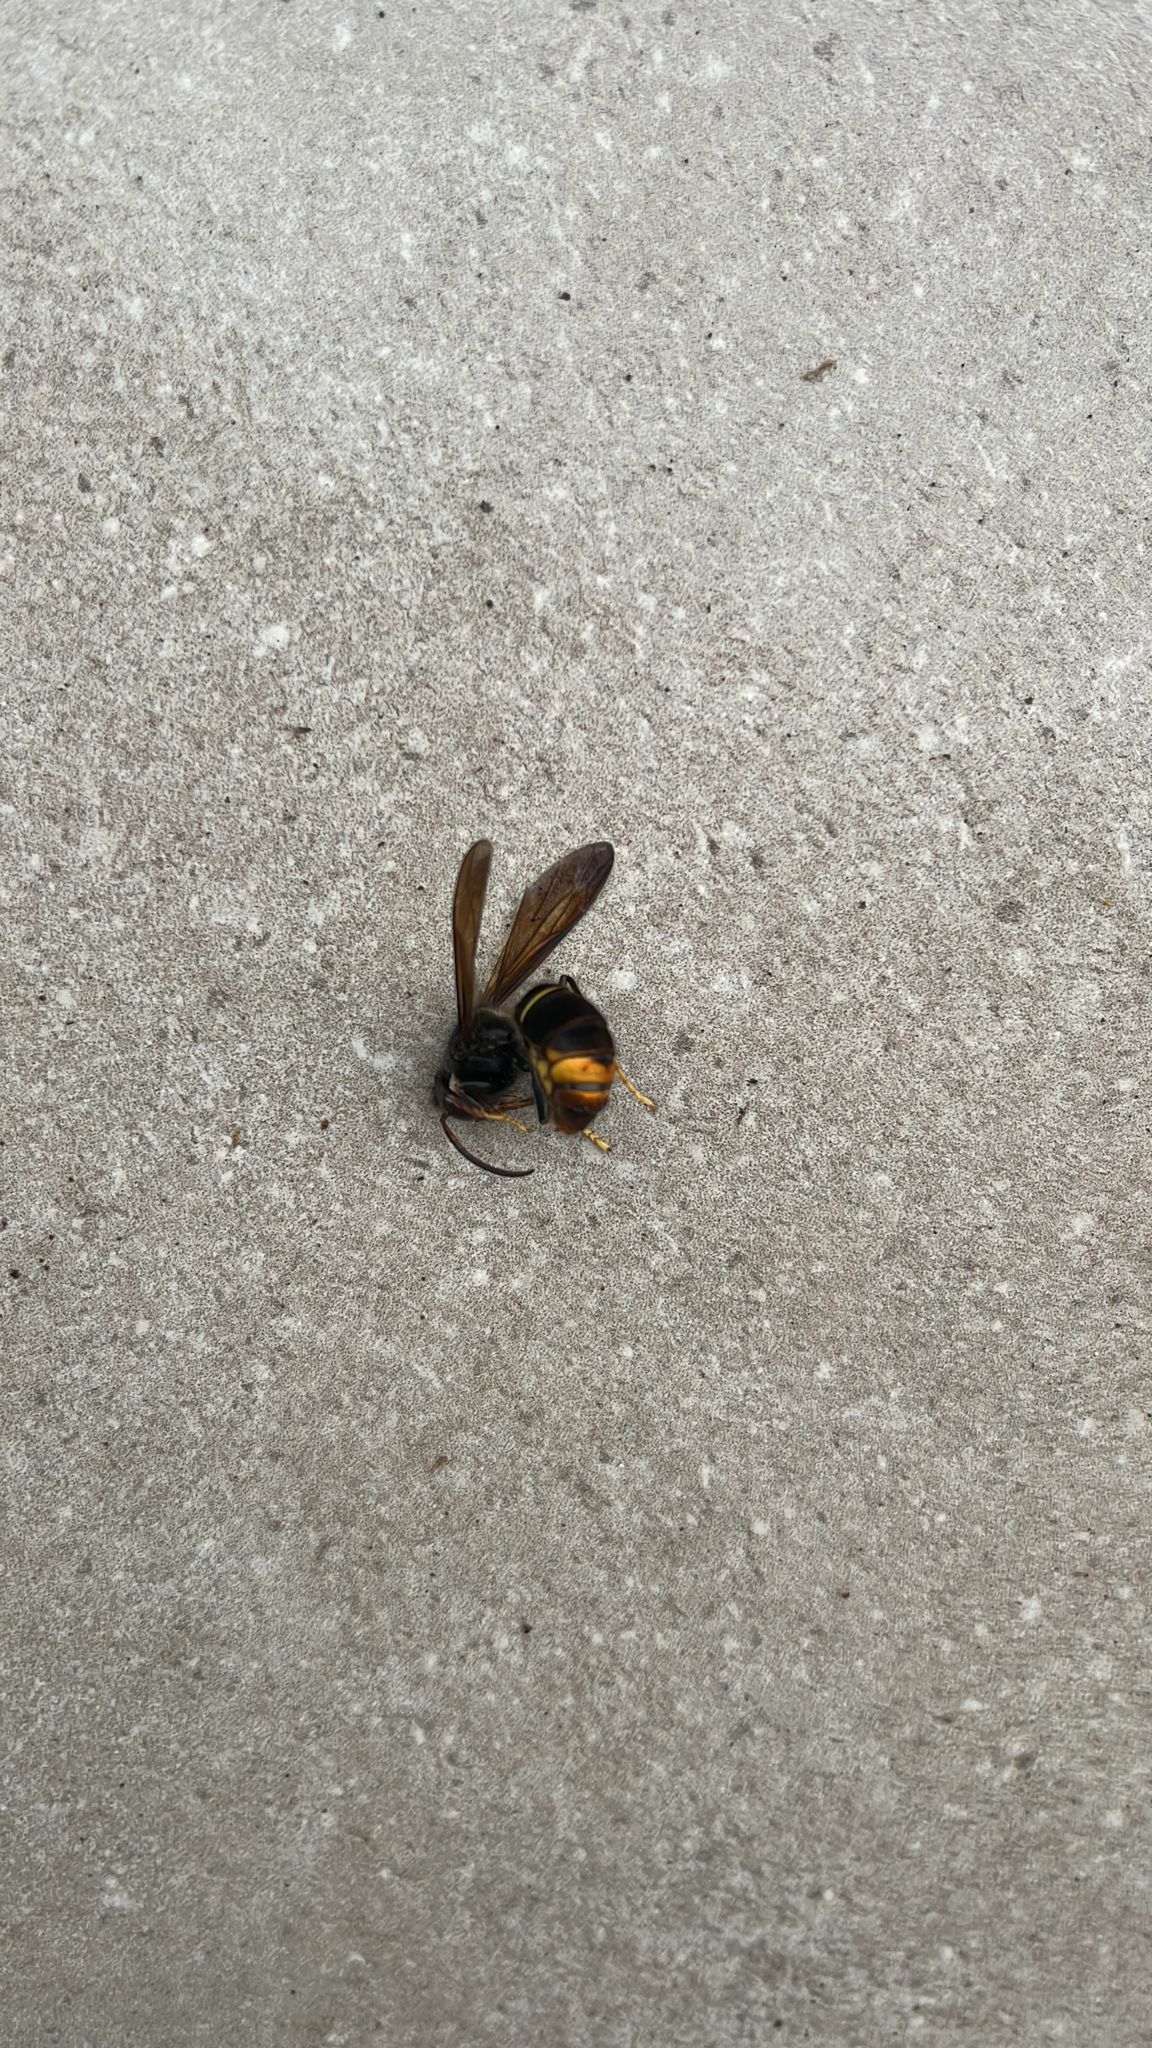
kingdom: Animalia
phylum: Arthropoda
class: Insecta
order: Hymenoptera
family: Vespidae
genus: Vespa
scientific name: Vespa velutina
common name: Asian hornet
